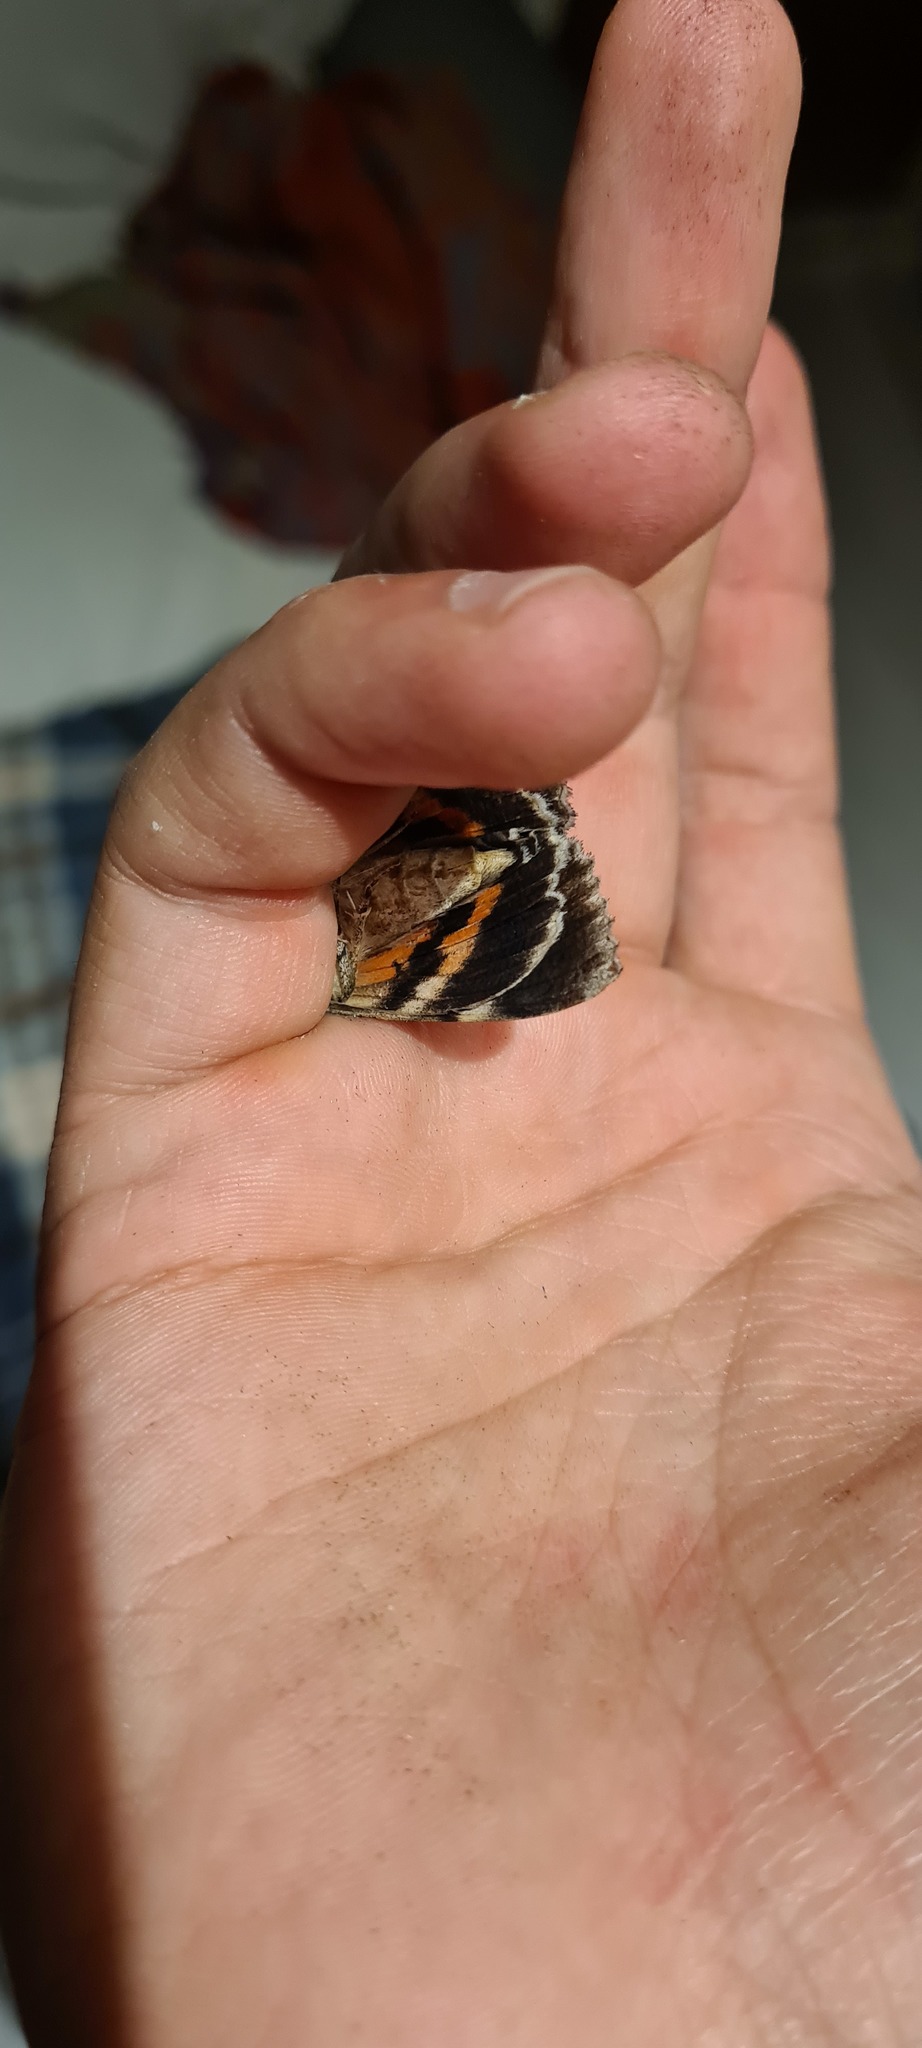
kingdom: Animalia
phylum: Arthropoda
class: Insecta
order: Lepidoptera
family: Erebidae
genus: Catocala
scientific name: Catocala nupta
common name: Red underwing
